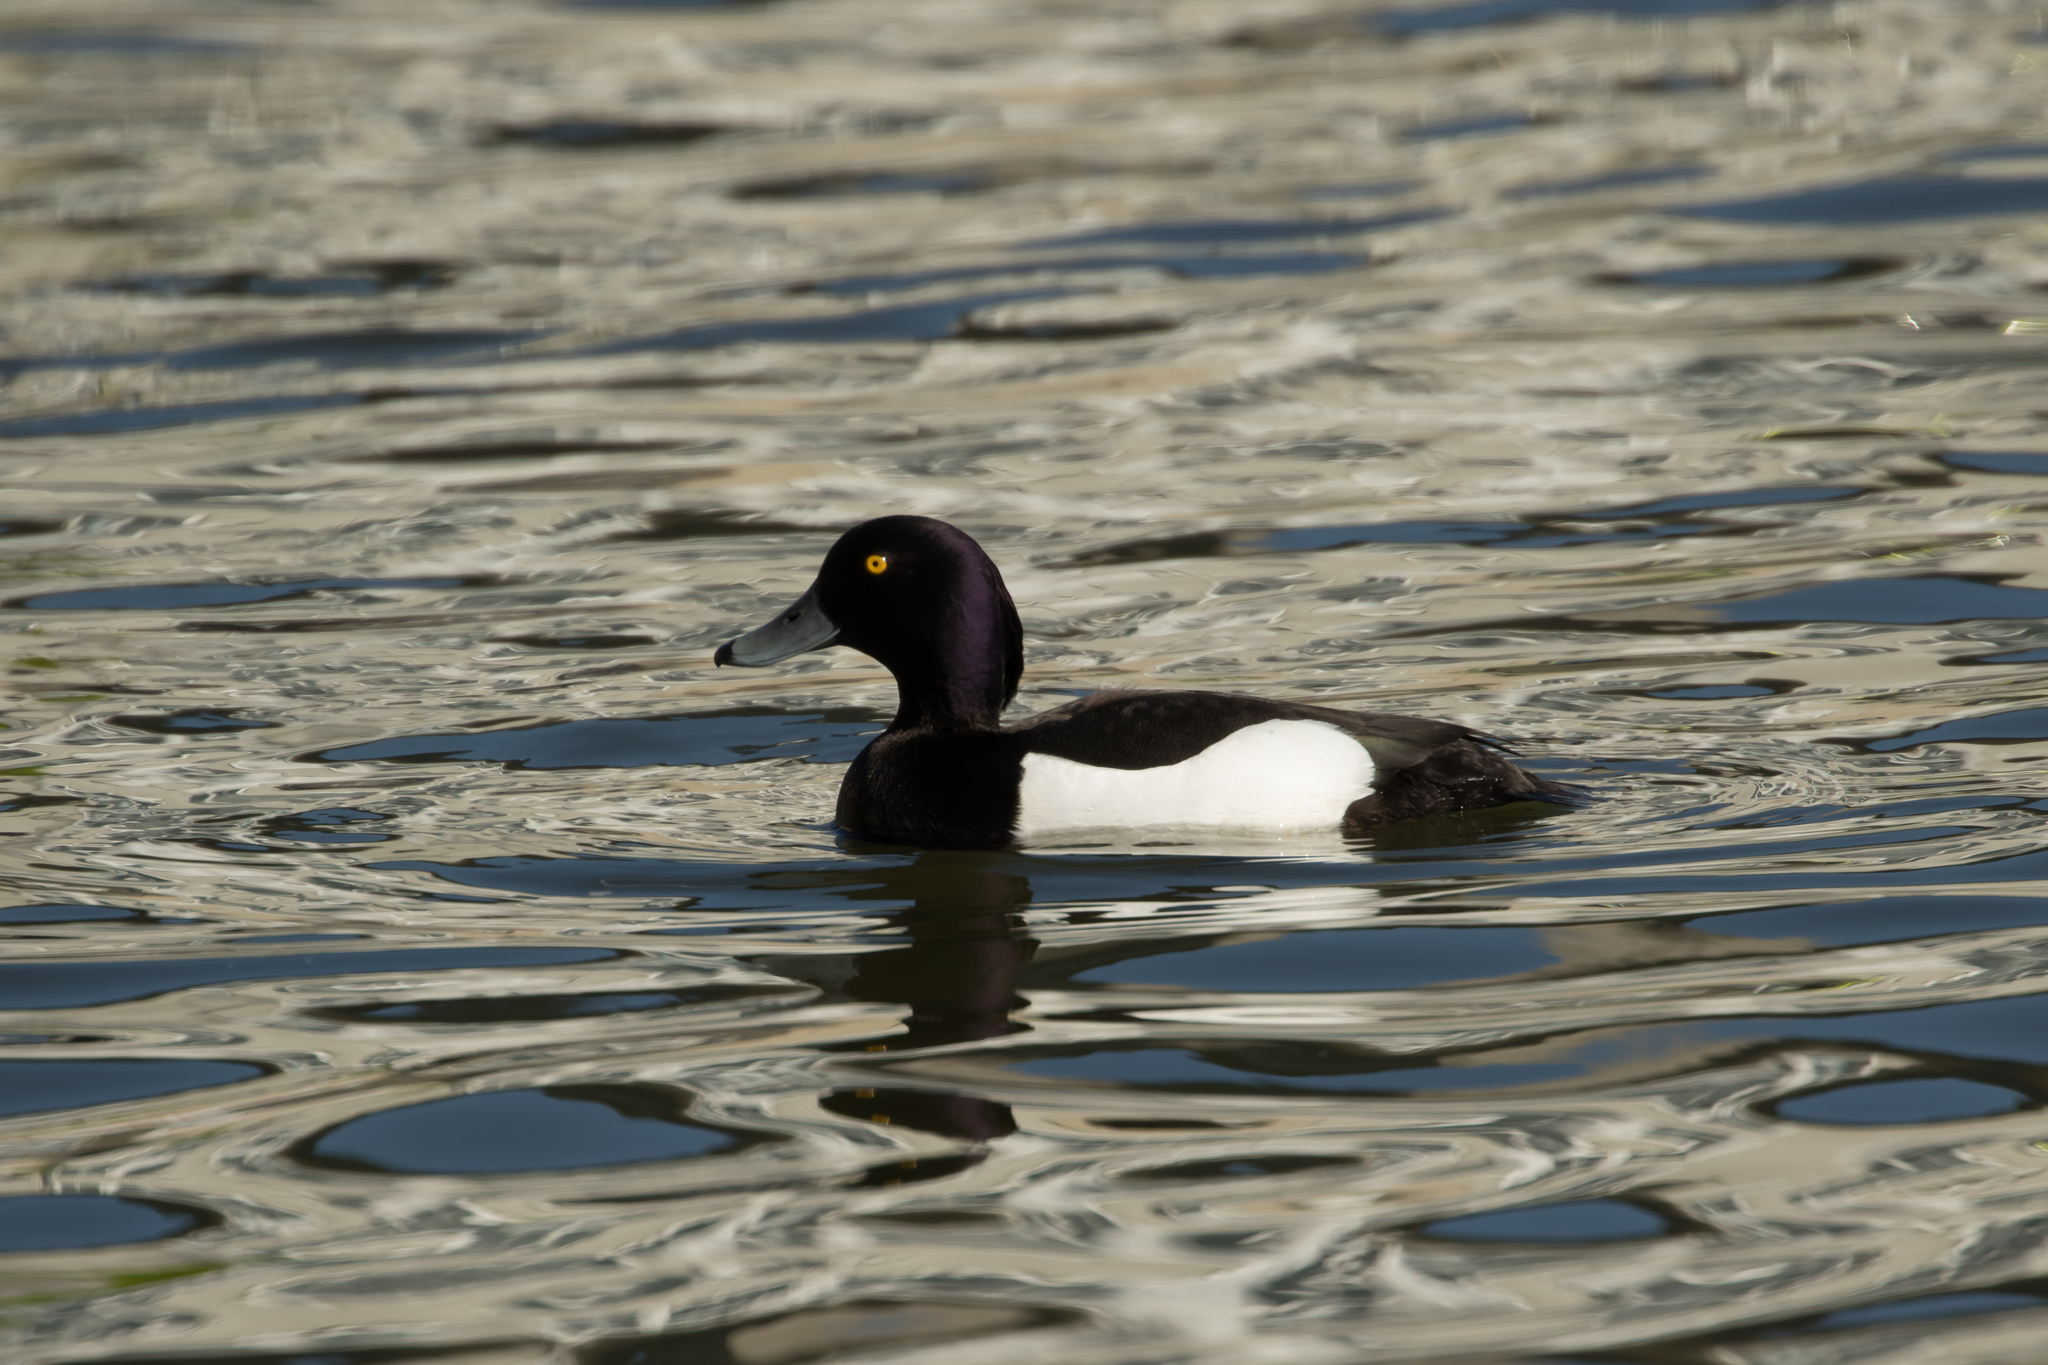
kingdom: Animalia
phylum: Chordata
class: Aves
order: Anseriformes
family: Anatidae
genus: Aythya
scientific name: Aythya fuligula
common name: Tufted duck
